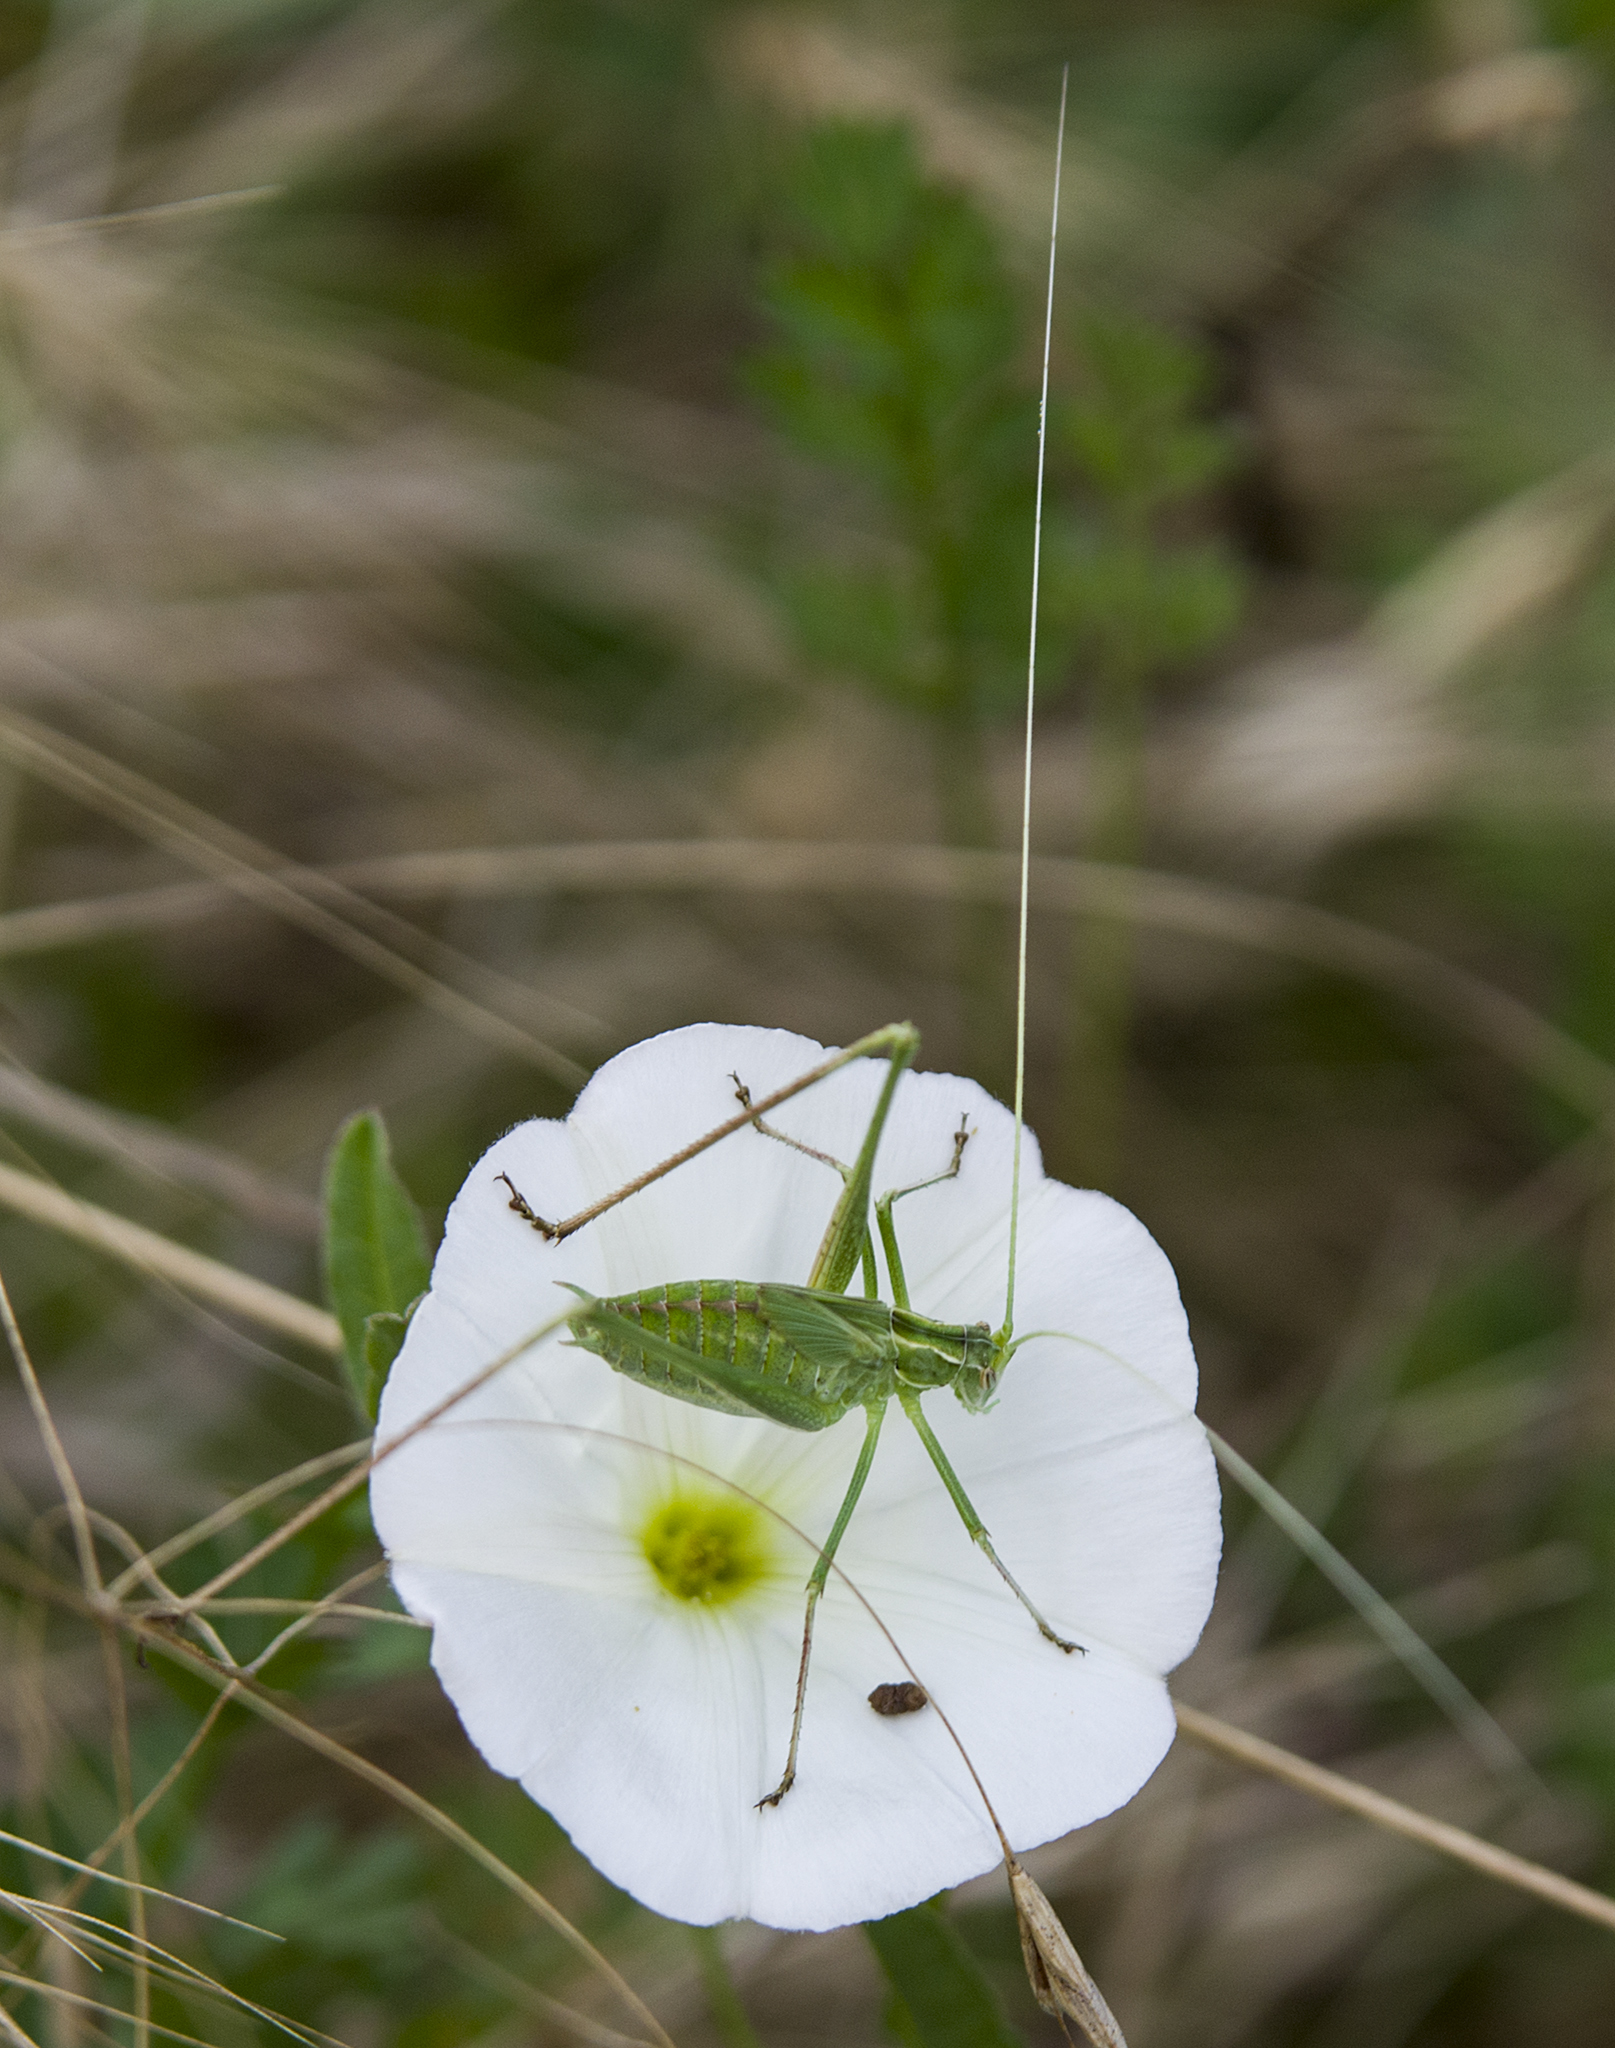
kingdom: Animalia
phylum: Arthropoda
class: Insecta
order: Orthoptera
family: Tettigoniidae
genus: Tylopsis
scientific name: Tylopsis lilifolia
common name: Lily bush-cricket
